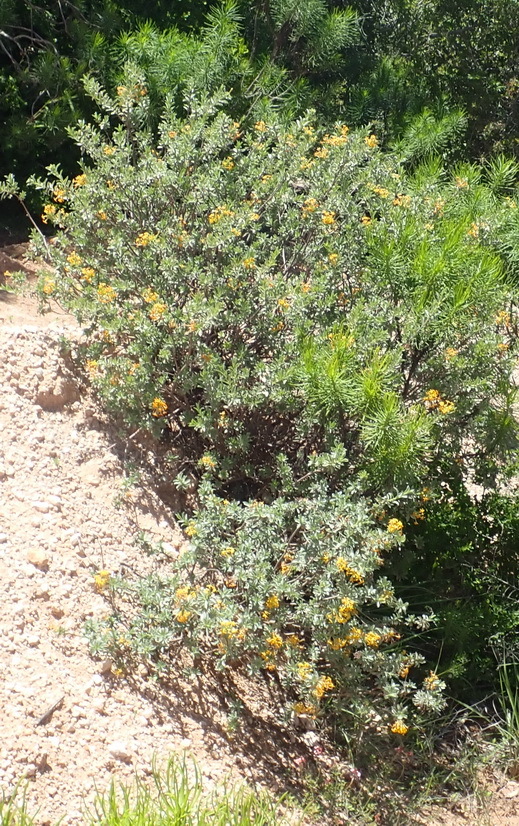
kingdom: Plantae
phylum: Tracheophyta
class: Magnoliopsida
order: Malvales
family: Thymelaeaceae
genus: Gnidia
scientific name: Gnidia cuneata
